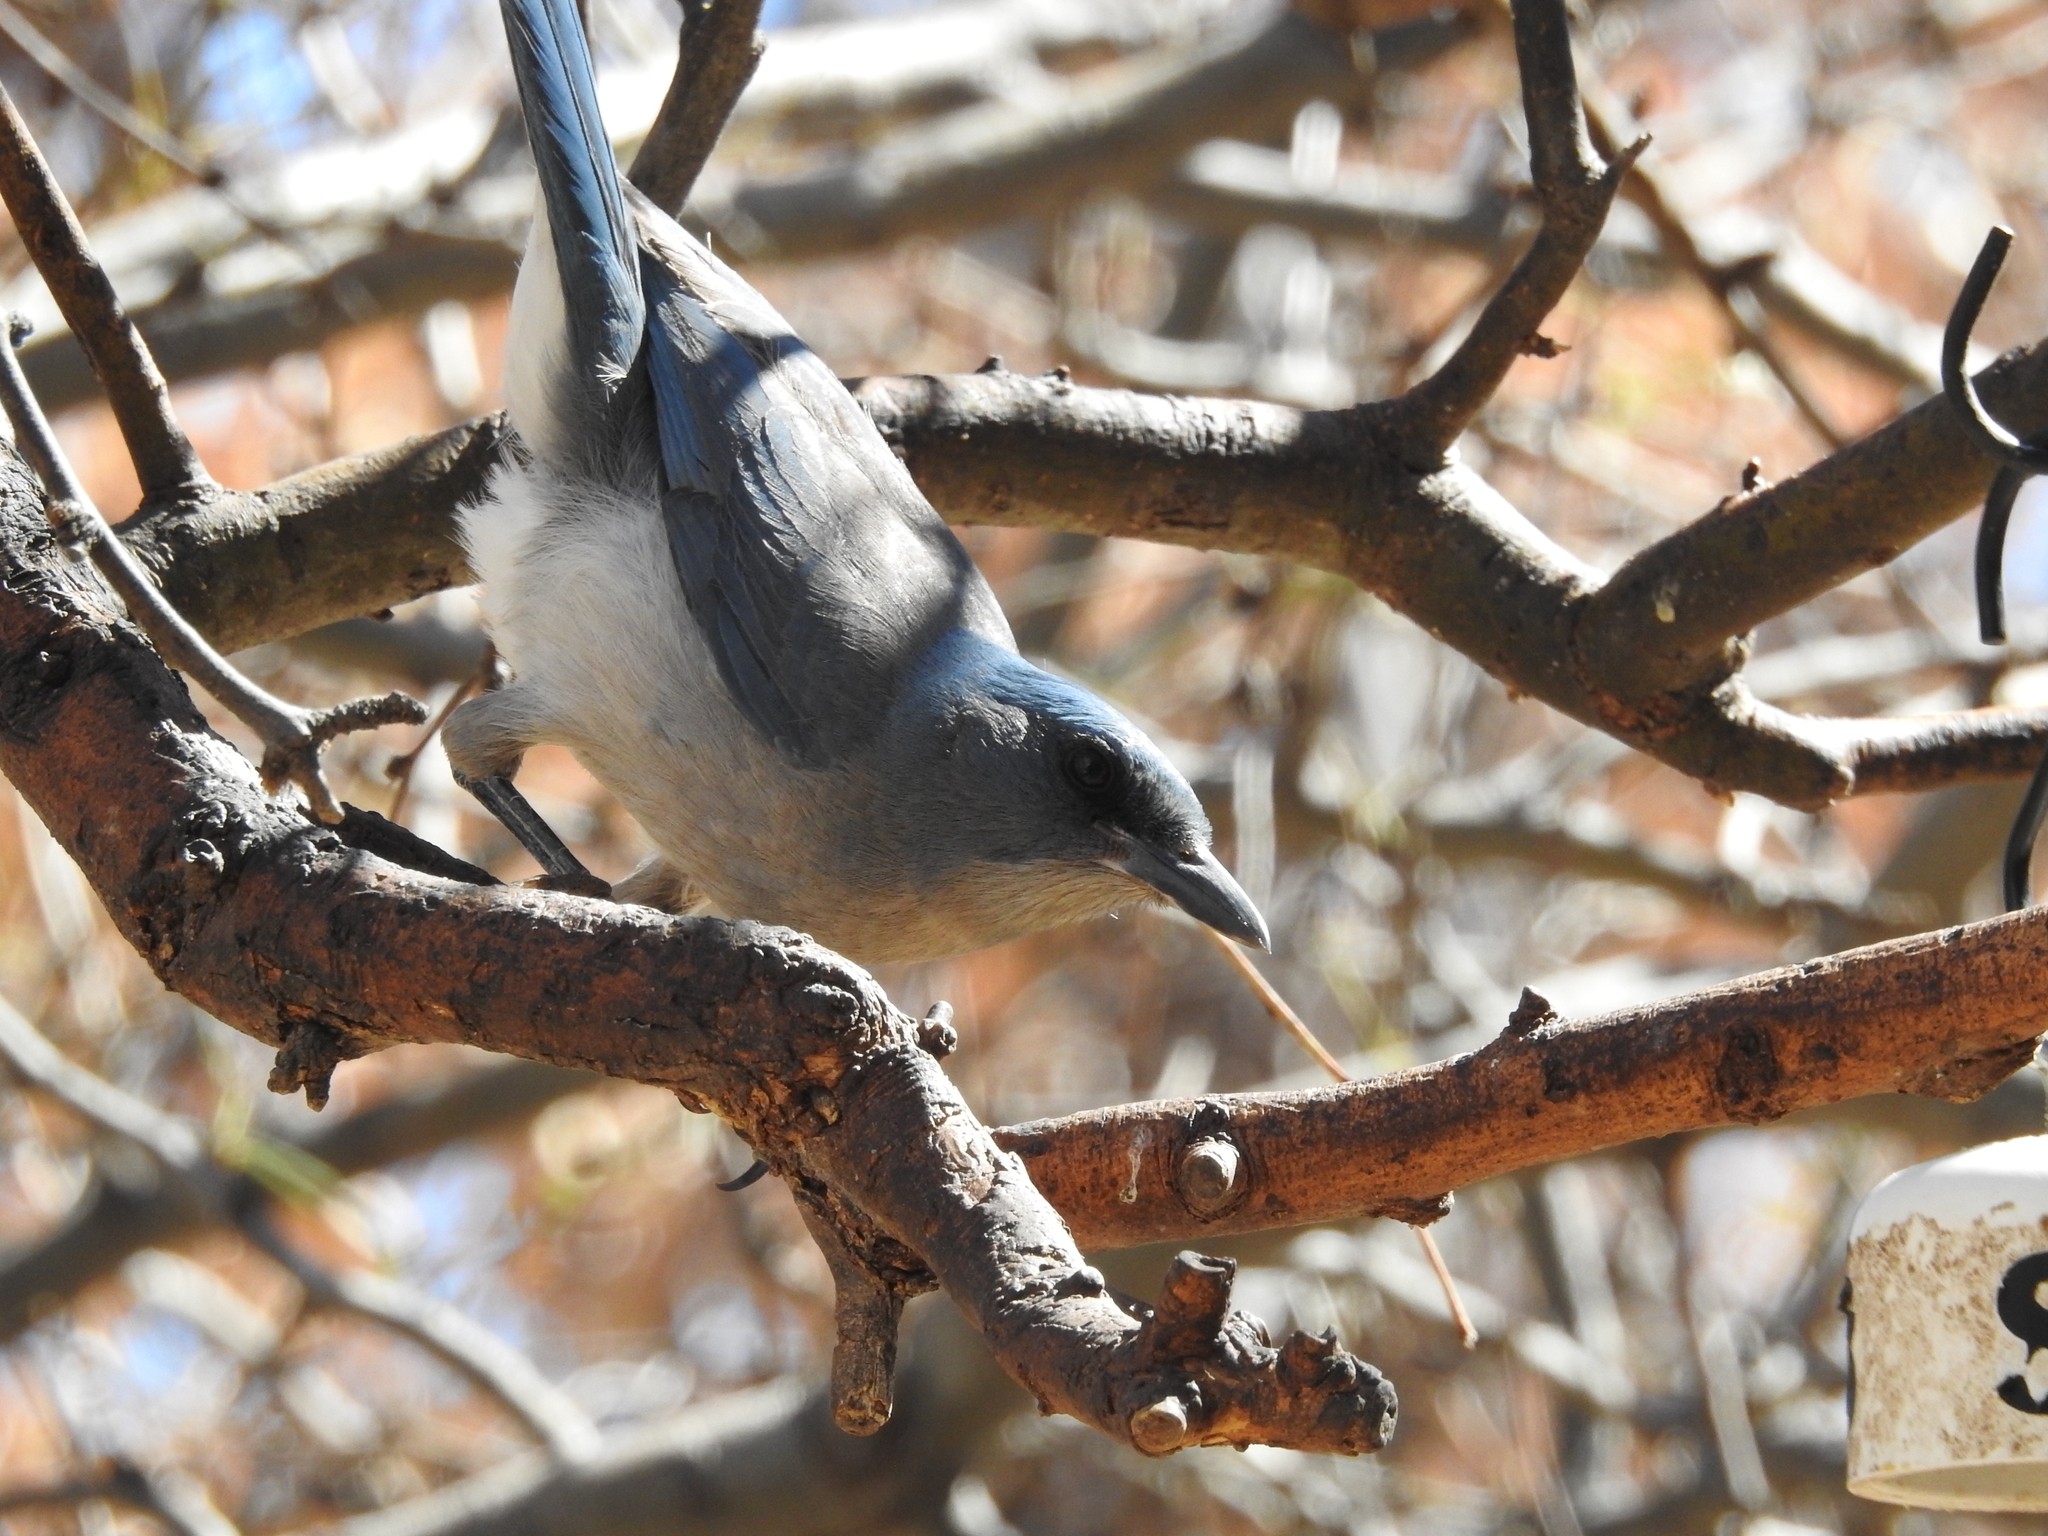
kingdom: Animalia
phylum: Chordata
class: Aves
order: Passeriformes
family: Corvidae
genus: Aphelocoma
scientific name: Aphelocoma wollweberi
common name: Mexican jay
